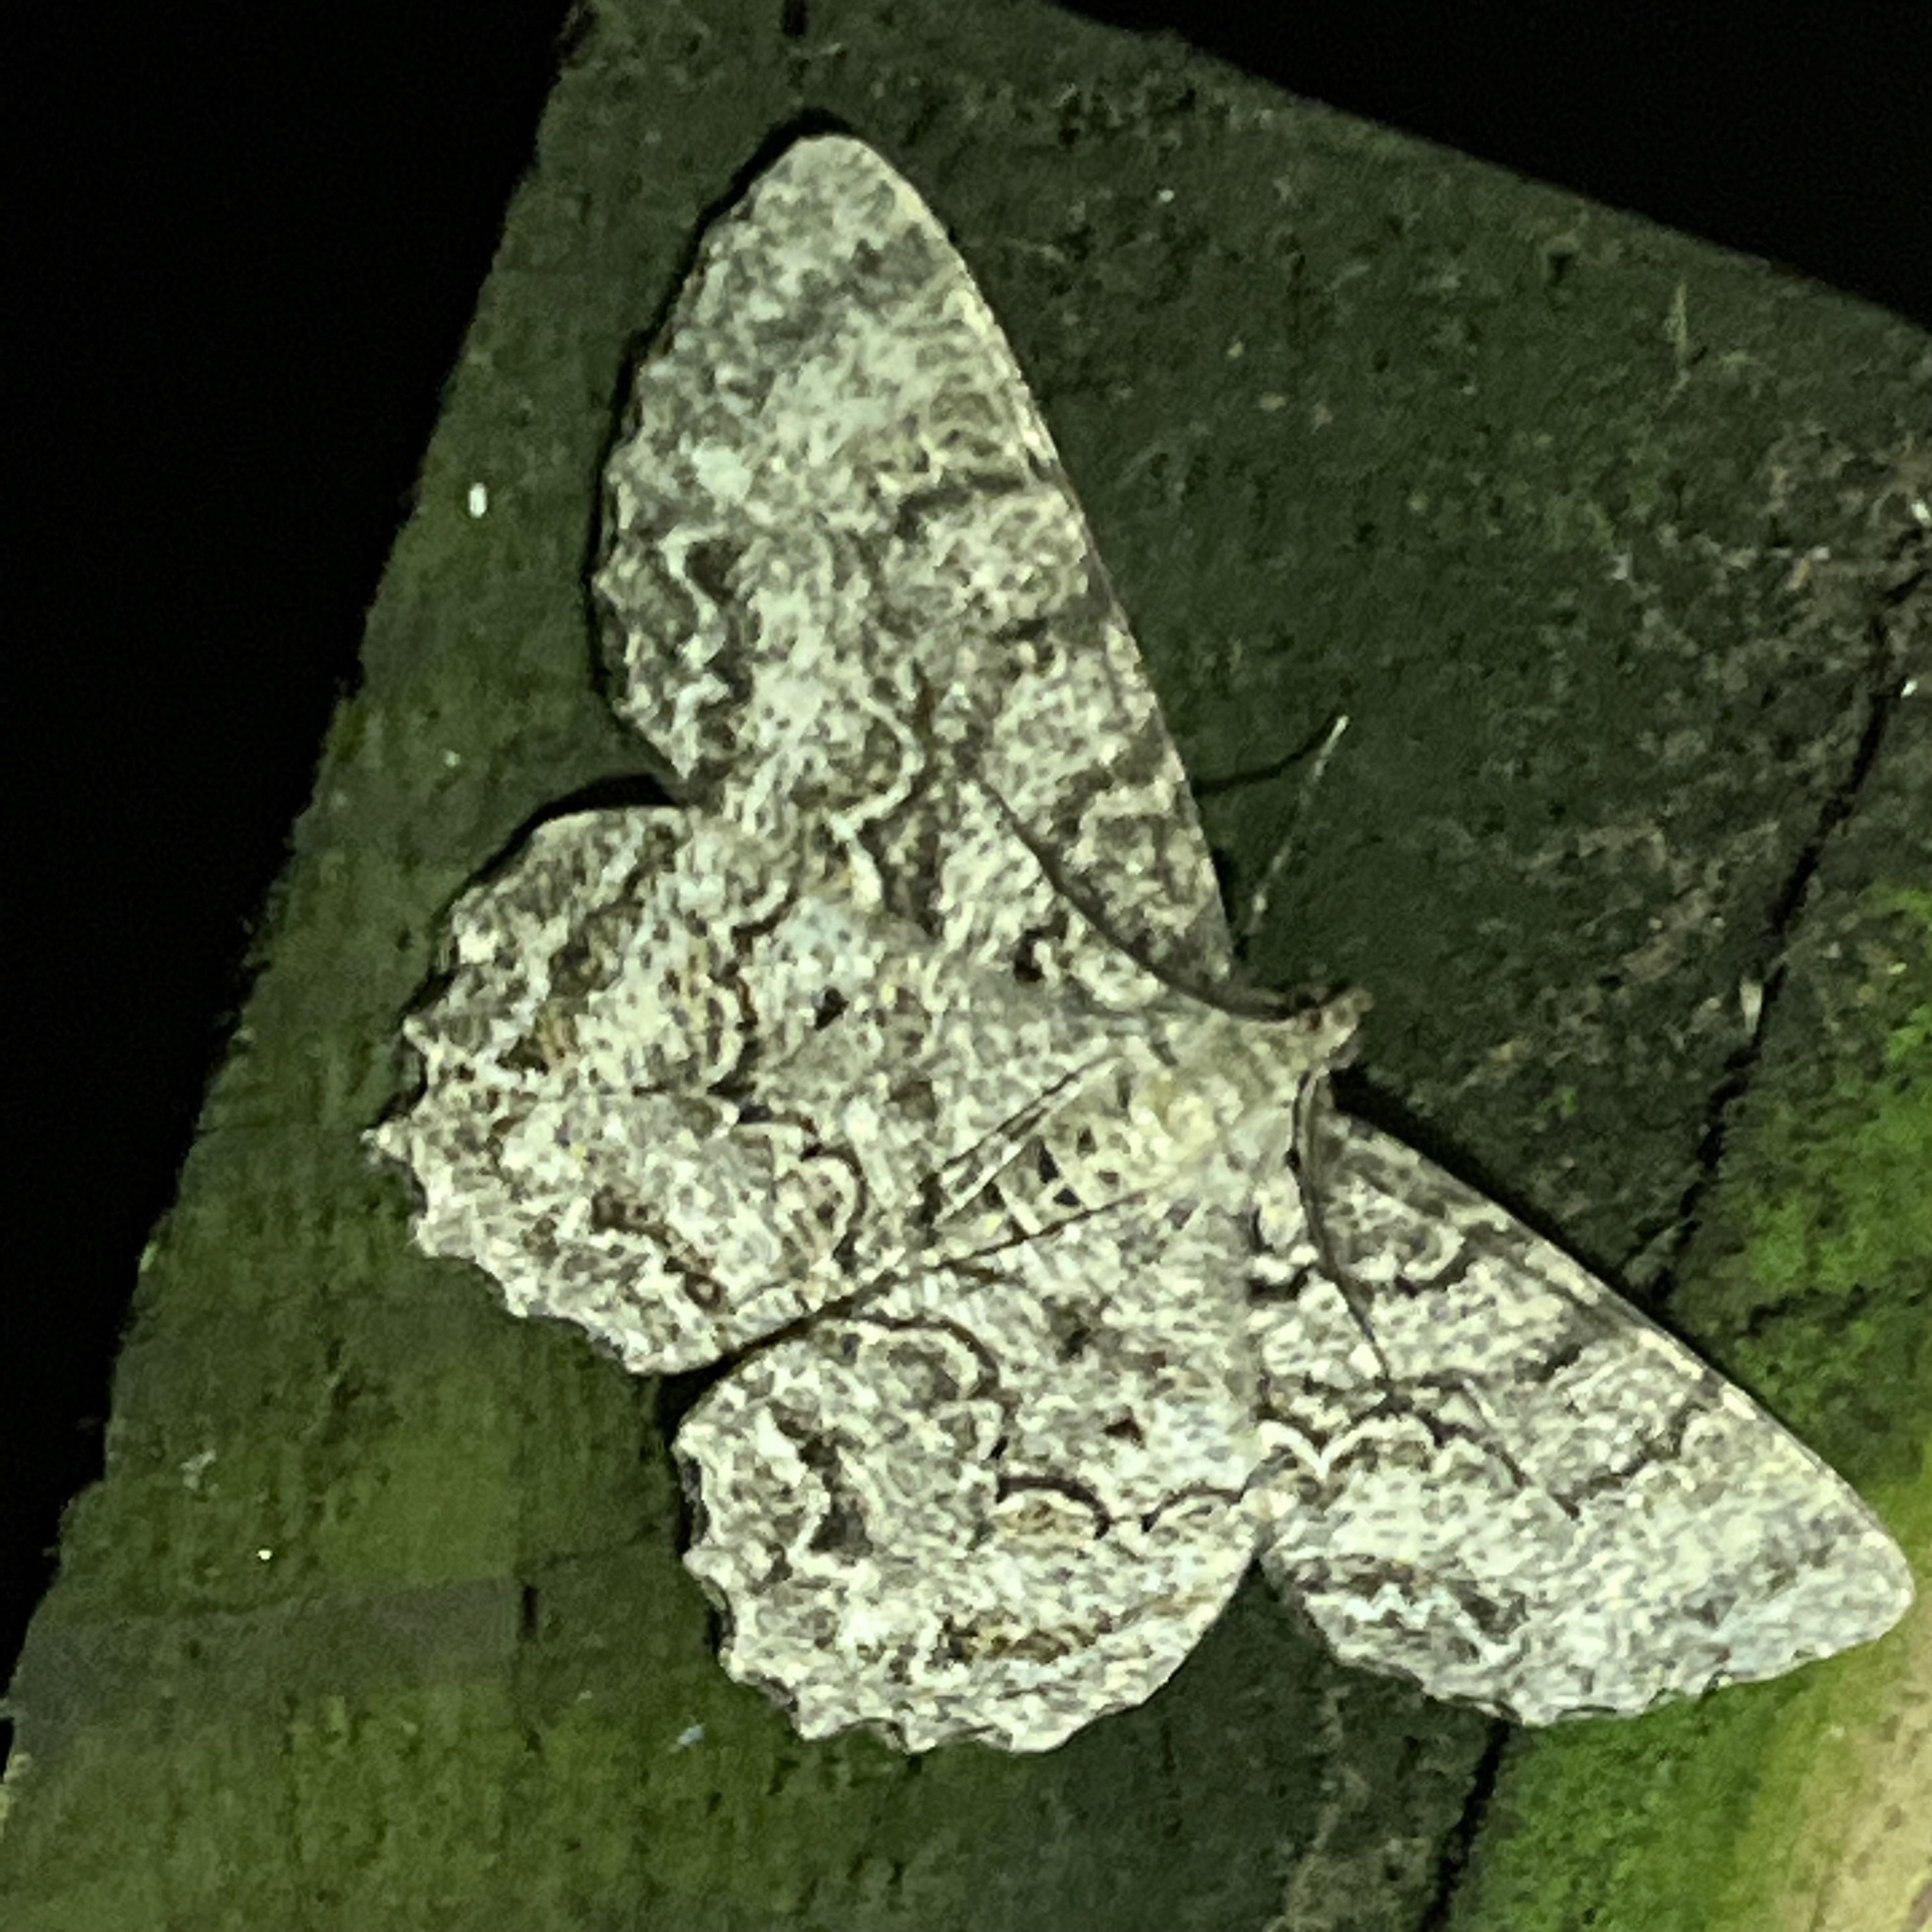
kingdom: Animalia
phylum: Arthropoda
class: Insecta
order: Lepidoptera
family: Geometridae
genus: Epimecis
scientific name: Epimecis hortaria
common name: Tulip-tree beauty
